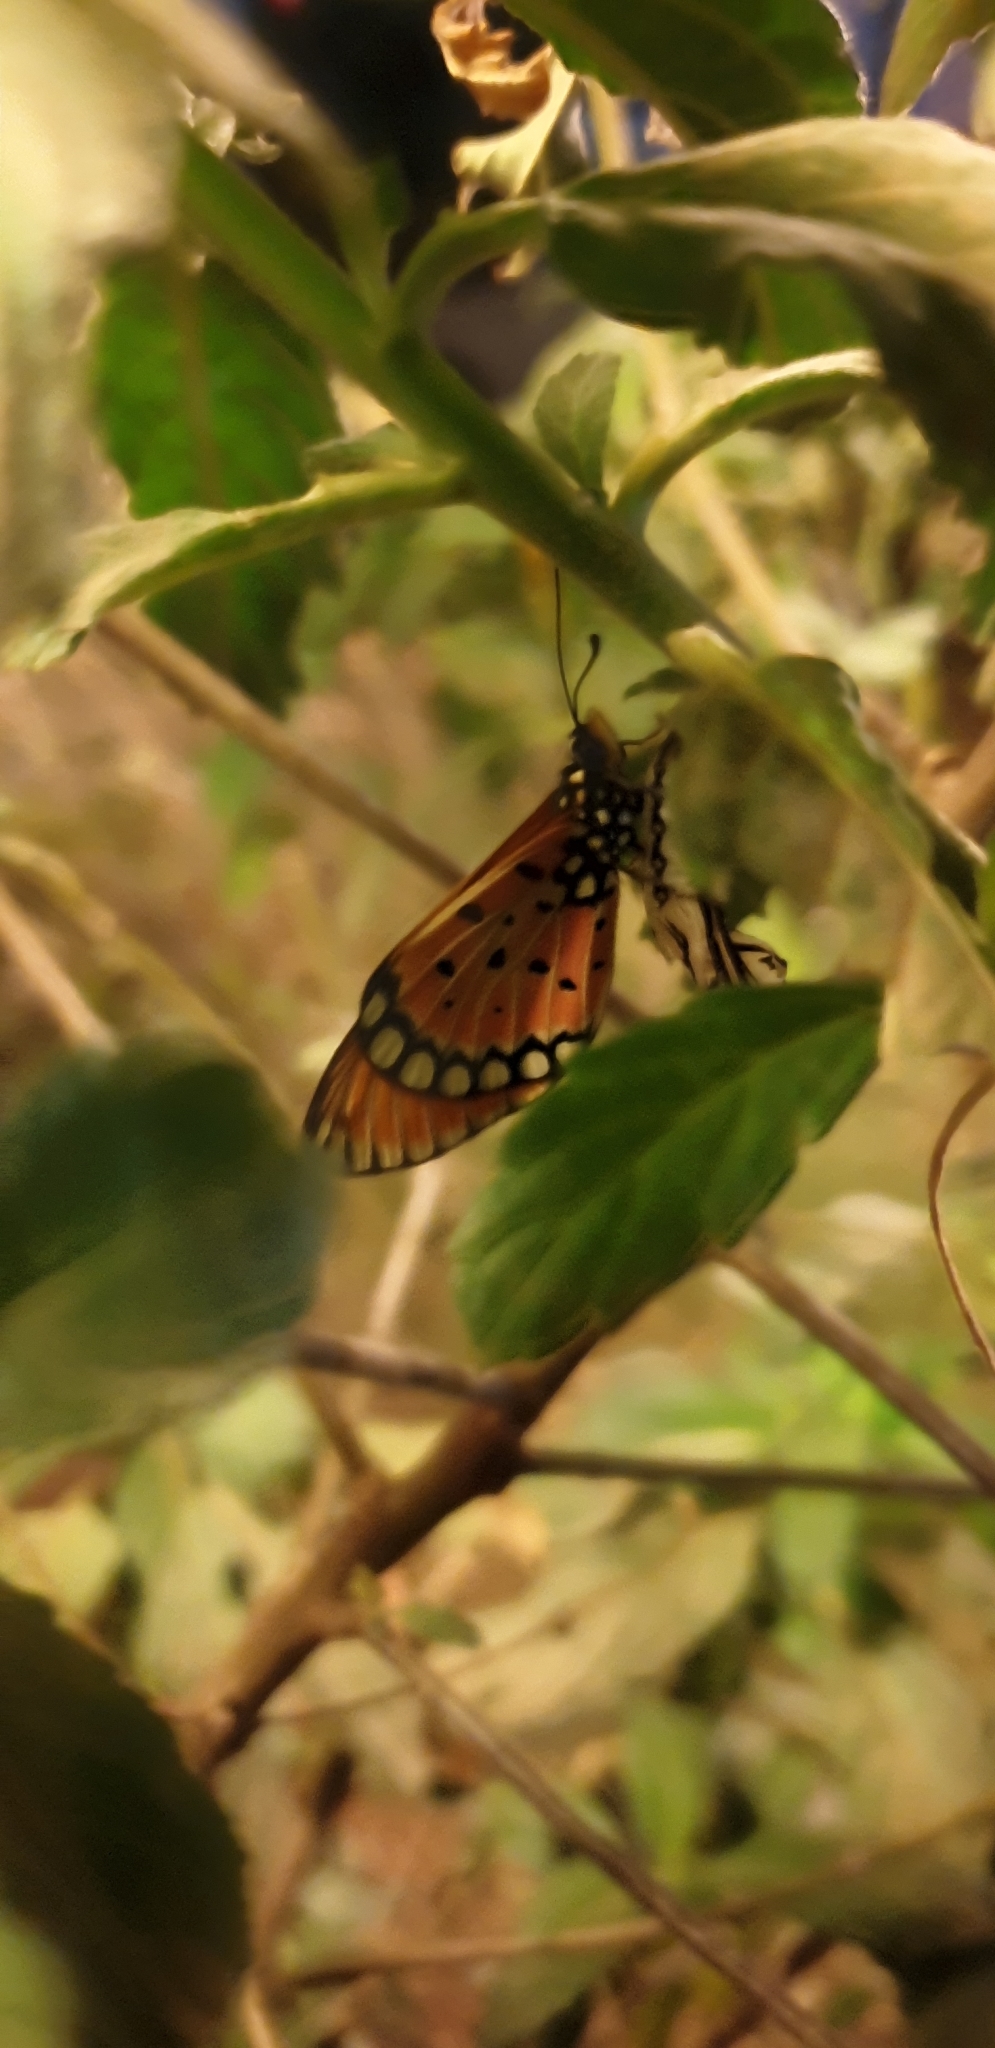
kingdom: Animalia
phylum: Arthropoda
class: Insecta
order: Lepidoptera
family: Nymphalidae
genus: Acraea
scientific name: Acraea terpsicore
